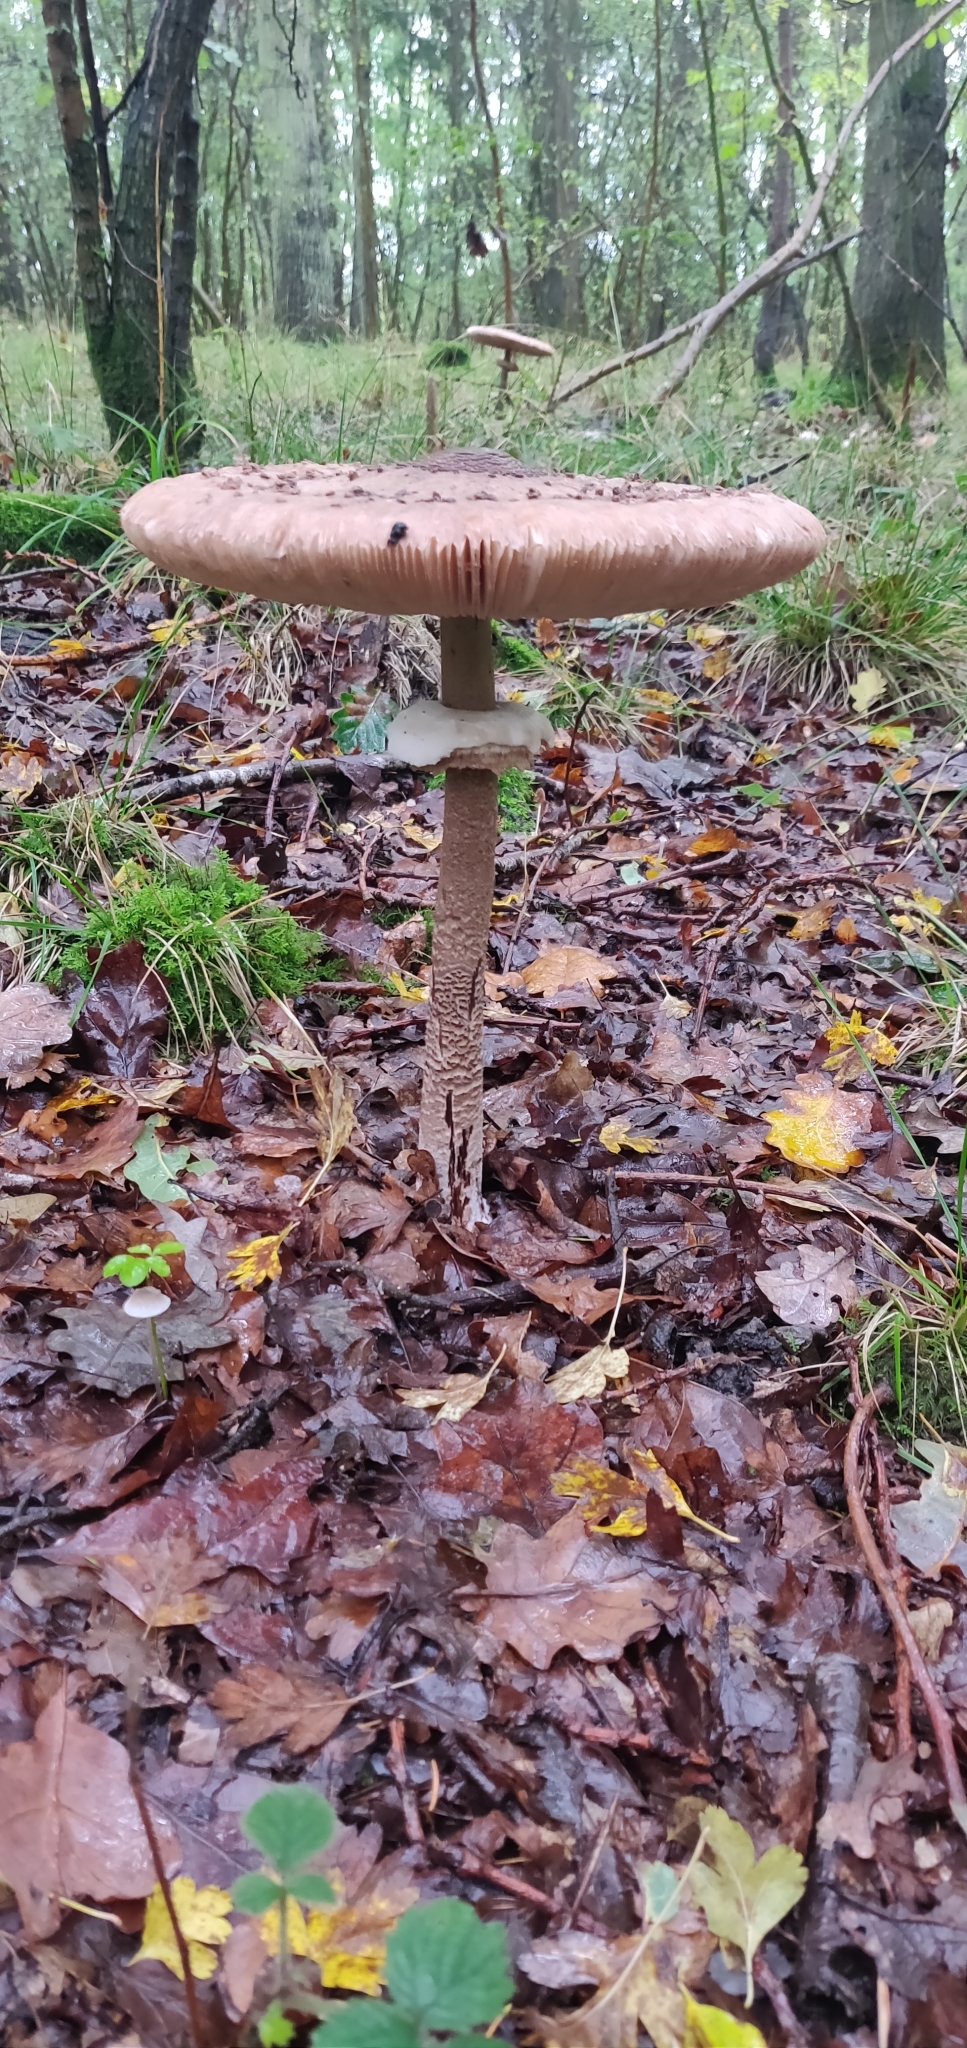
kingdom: Fungi
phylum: Basidiomycota
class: Agaricomycetes
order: Agaricales
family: Agaricaceae
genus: Macrolepiota
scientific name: Macrolepiota procera
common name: Parasol
